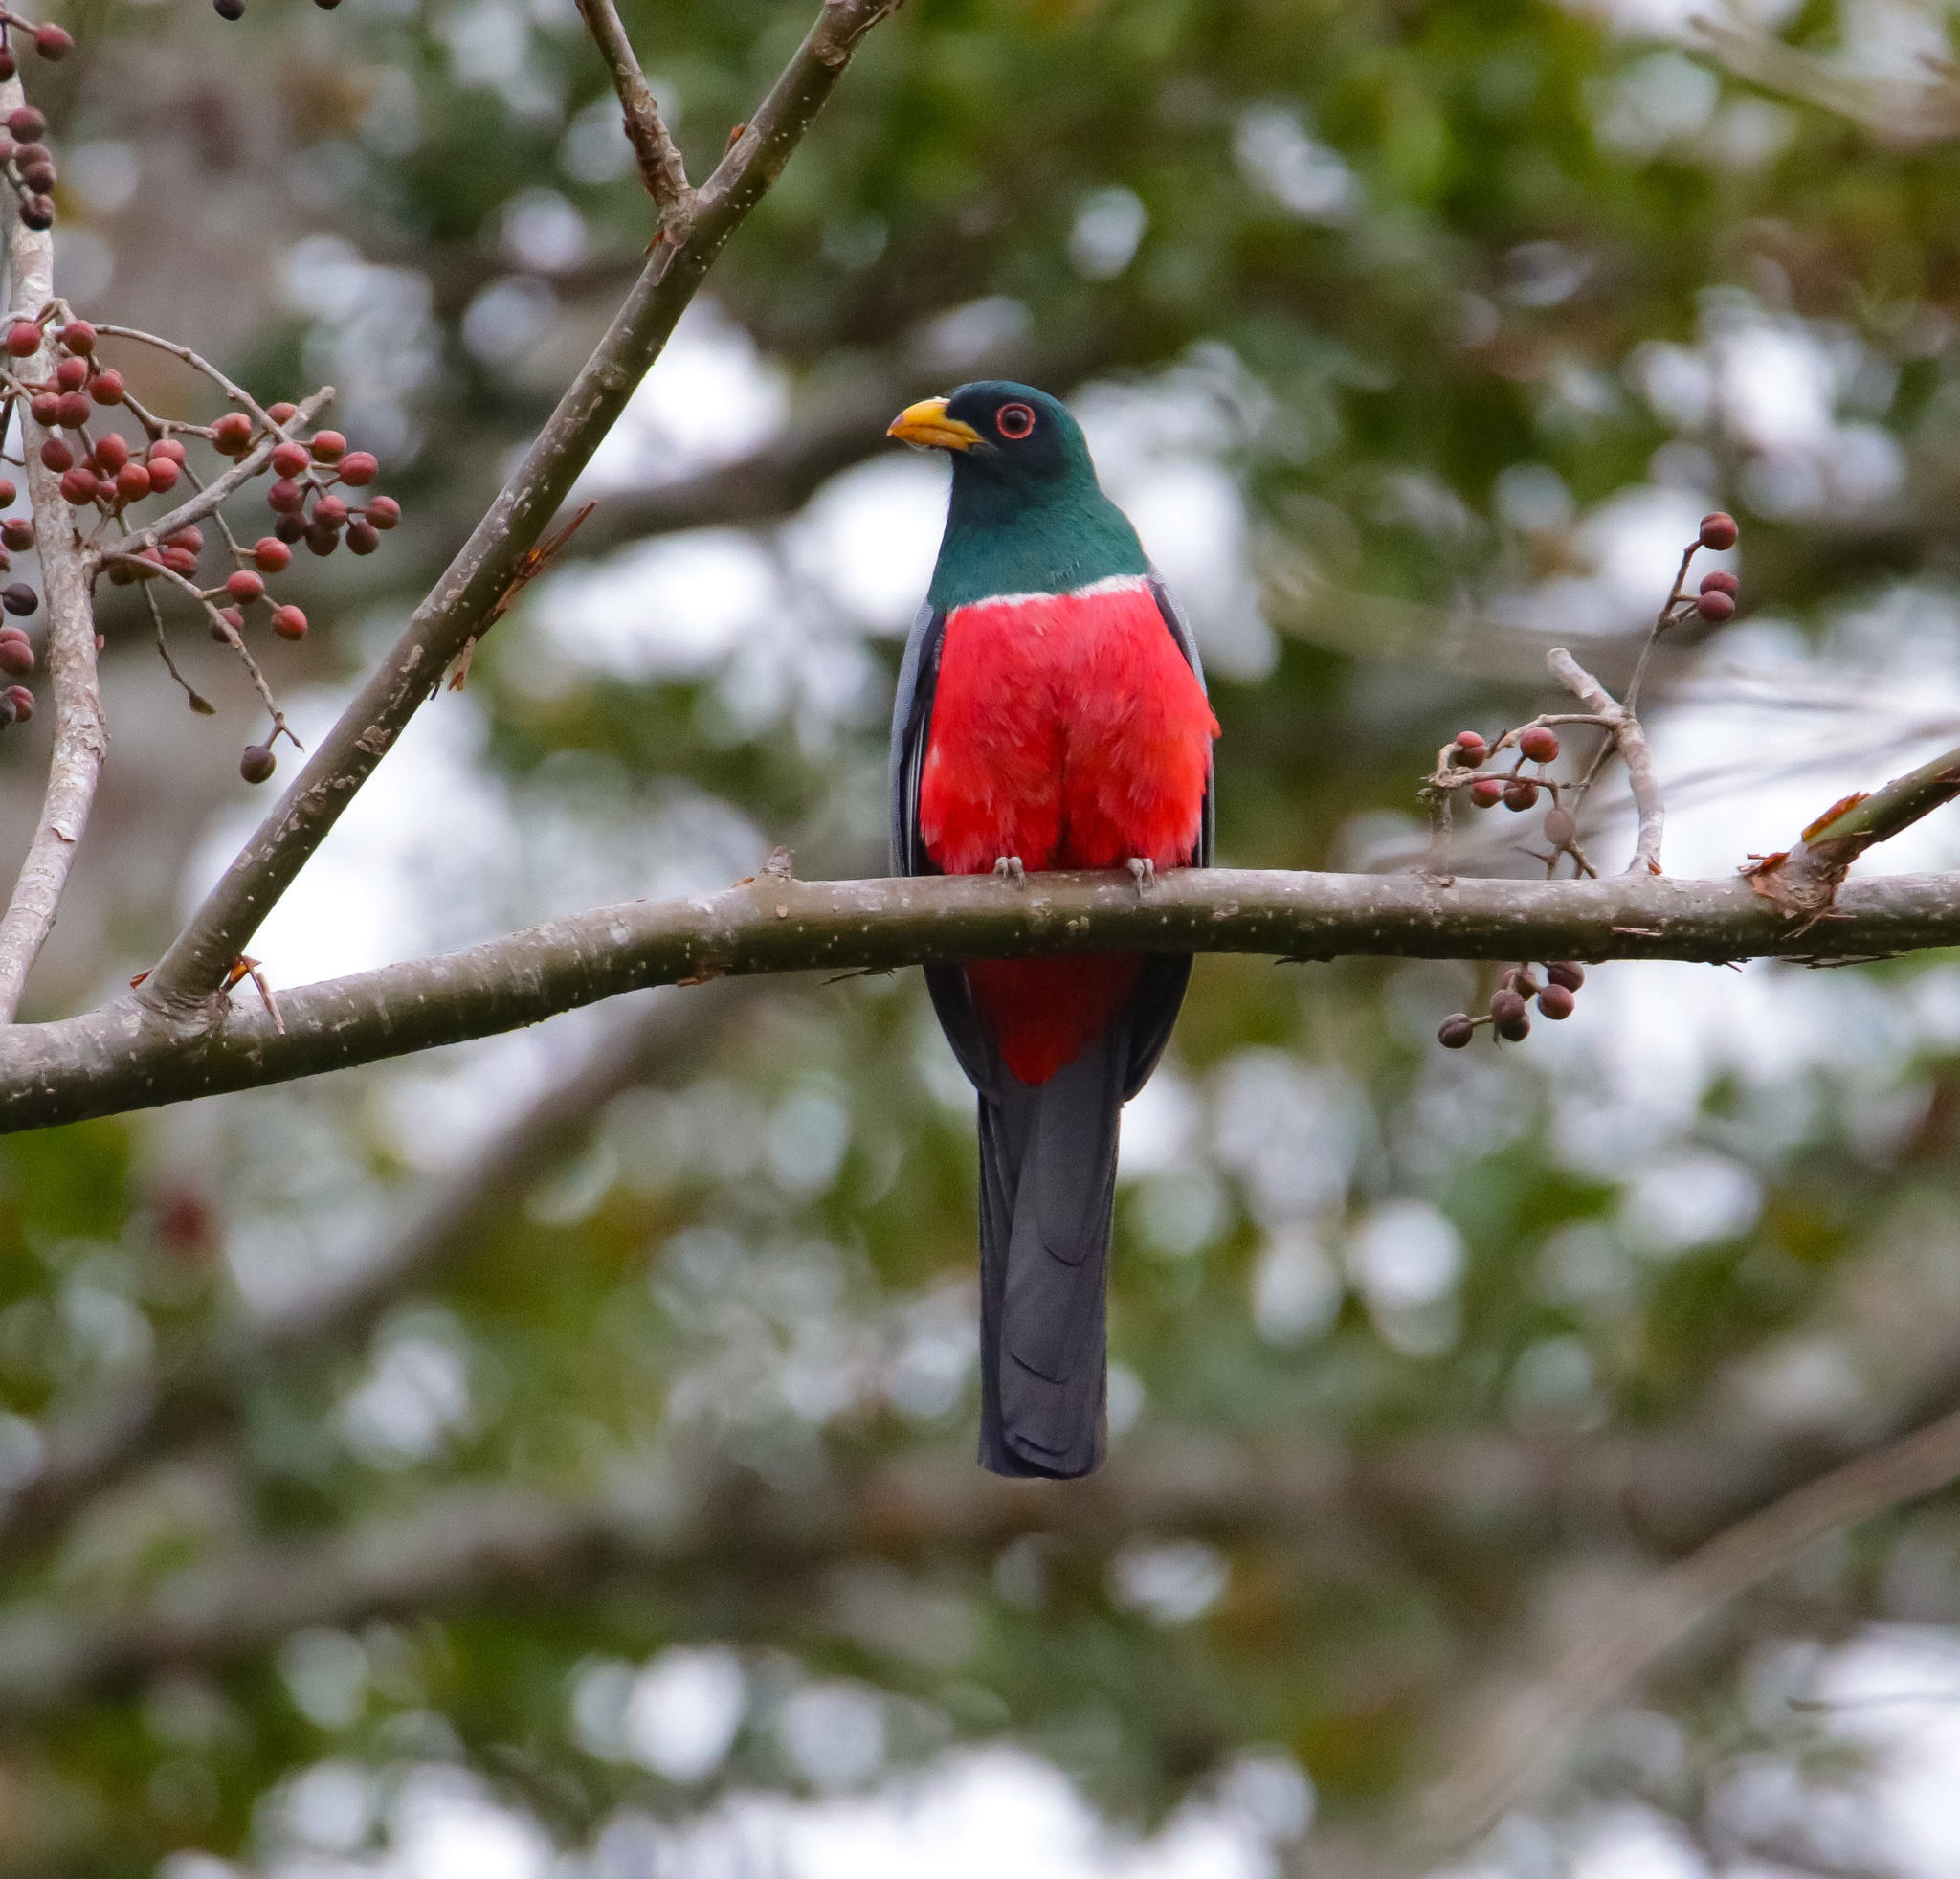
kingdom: Animalia
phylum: Chordata
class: Aves
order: Trogoniformes
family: Trogonidae
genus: Trogon
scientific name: Trogon melanurus
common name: Black-tailed trogon
